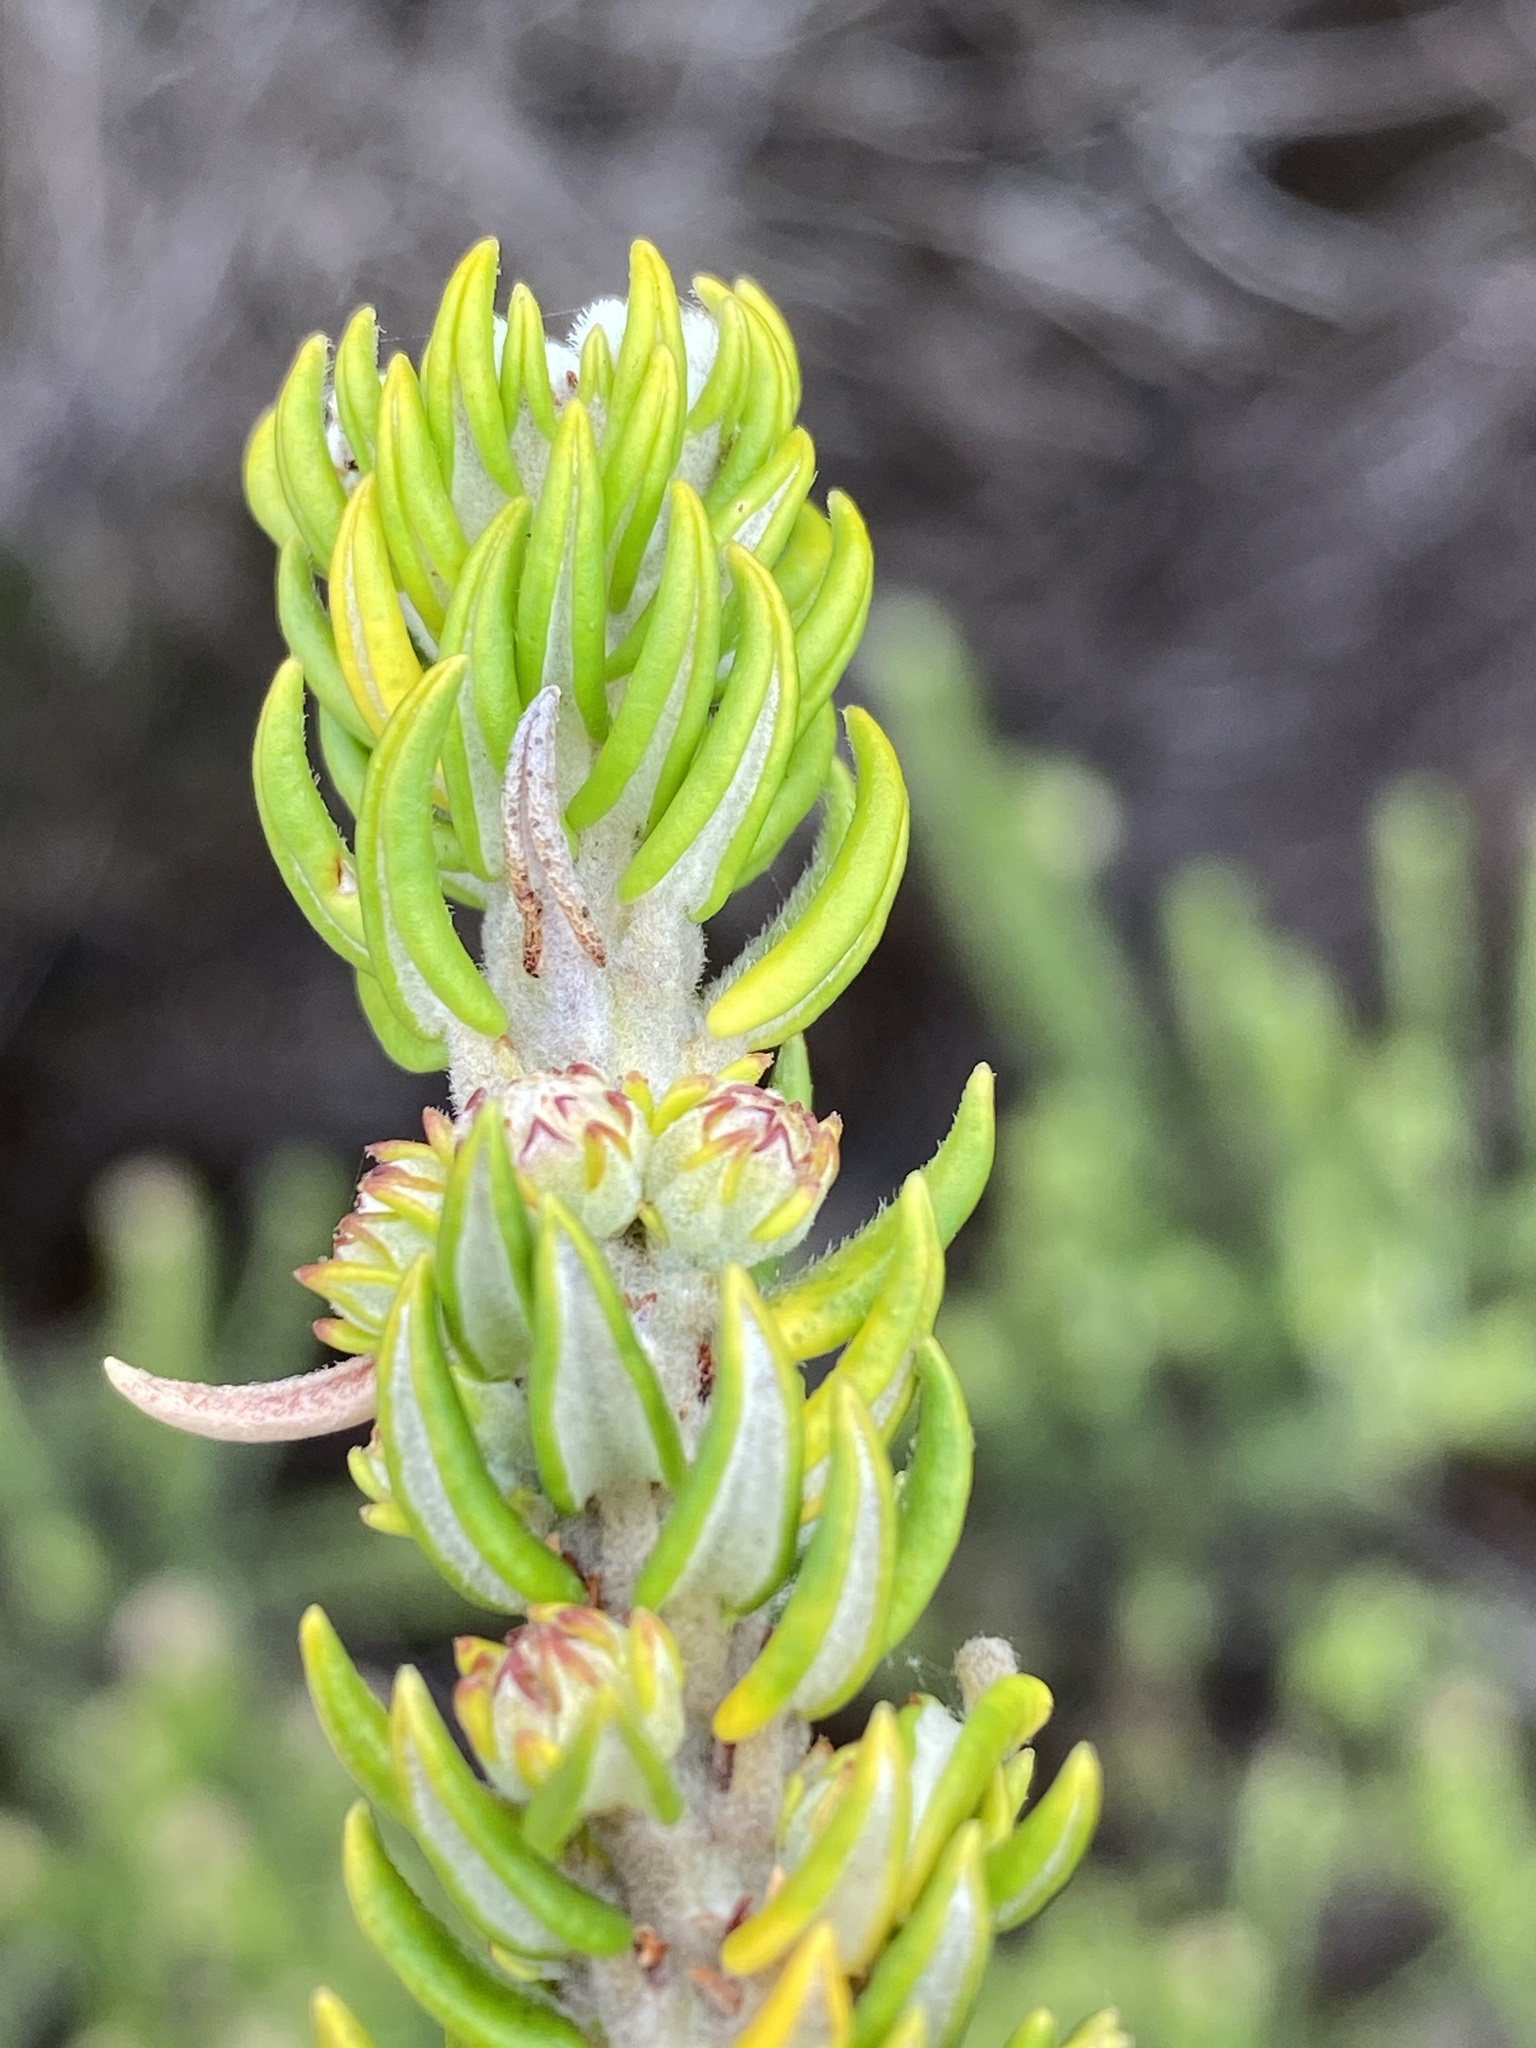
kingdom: Plantae
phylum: Tracheophyta
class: Magnoliopsida
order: Rosales
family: Rhamnaceae
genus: Phylica
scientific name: Phylica litoralis
